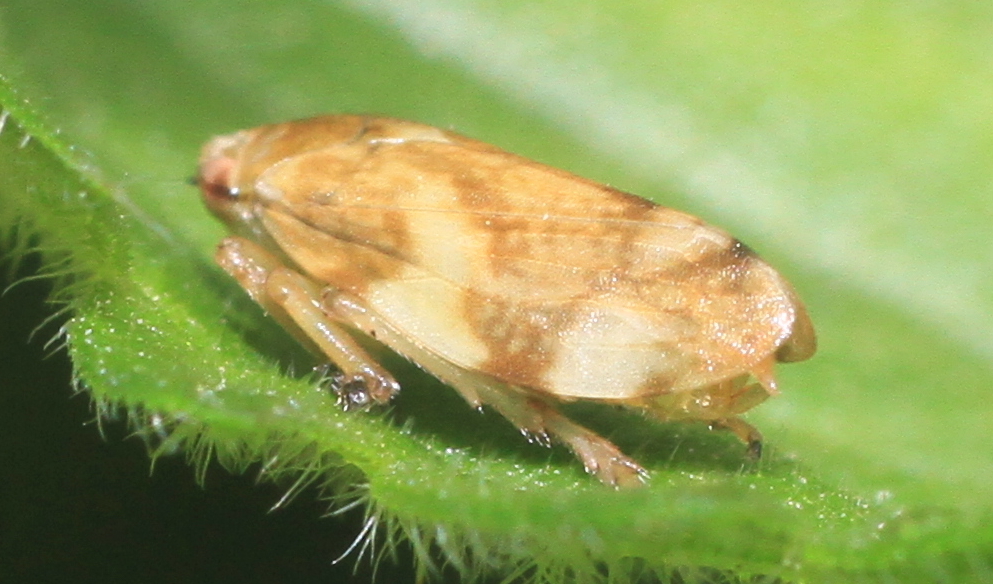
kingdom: Animalia
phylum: Arthropoda
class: Insecta
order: Hemiptera
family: Aphrophoridae
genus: Philaenus
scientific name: Philaenus spumarius
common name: Meadow spittlebug
